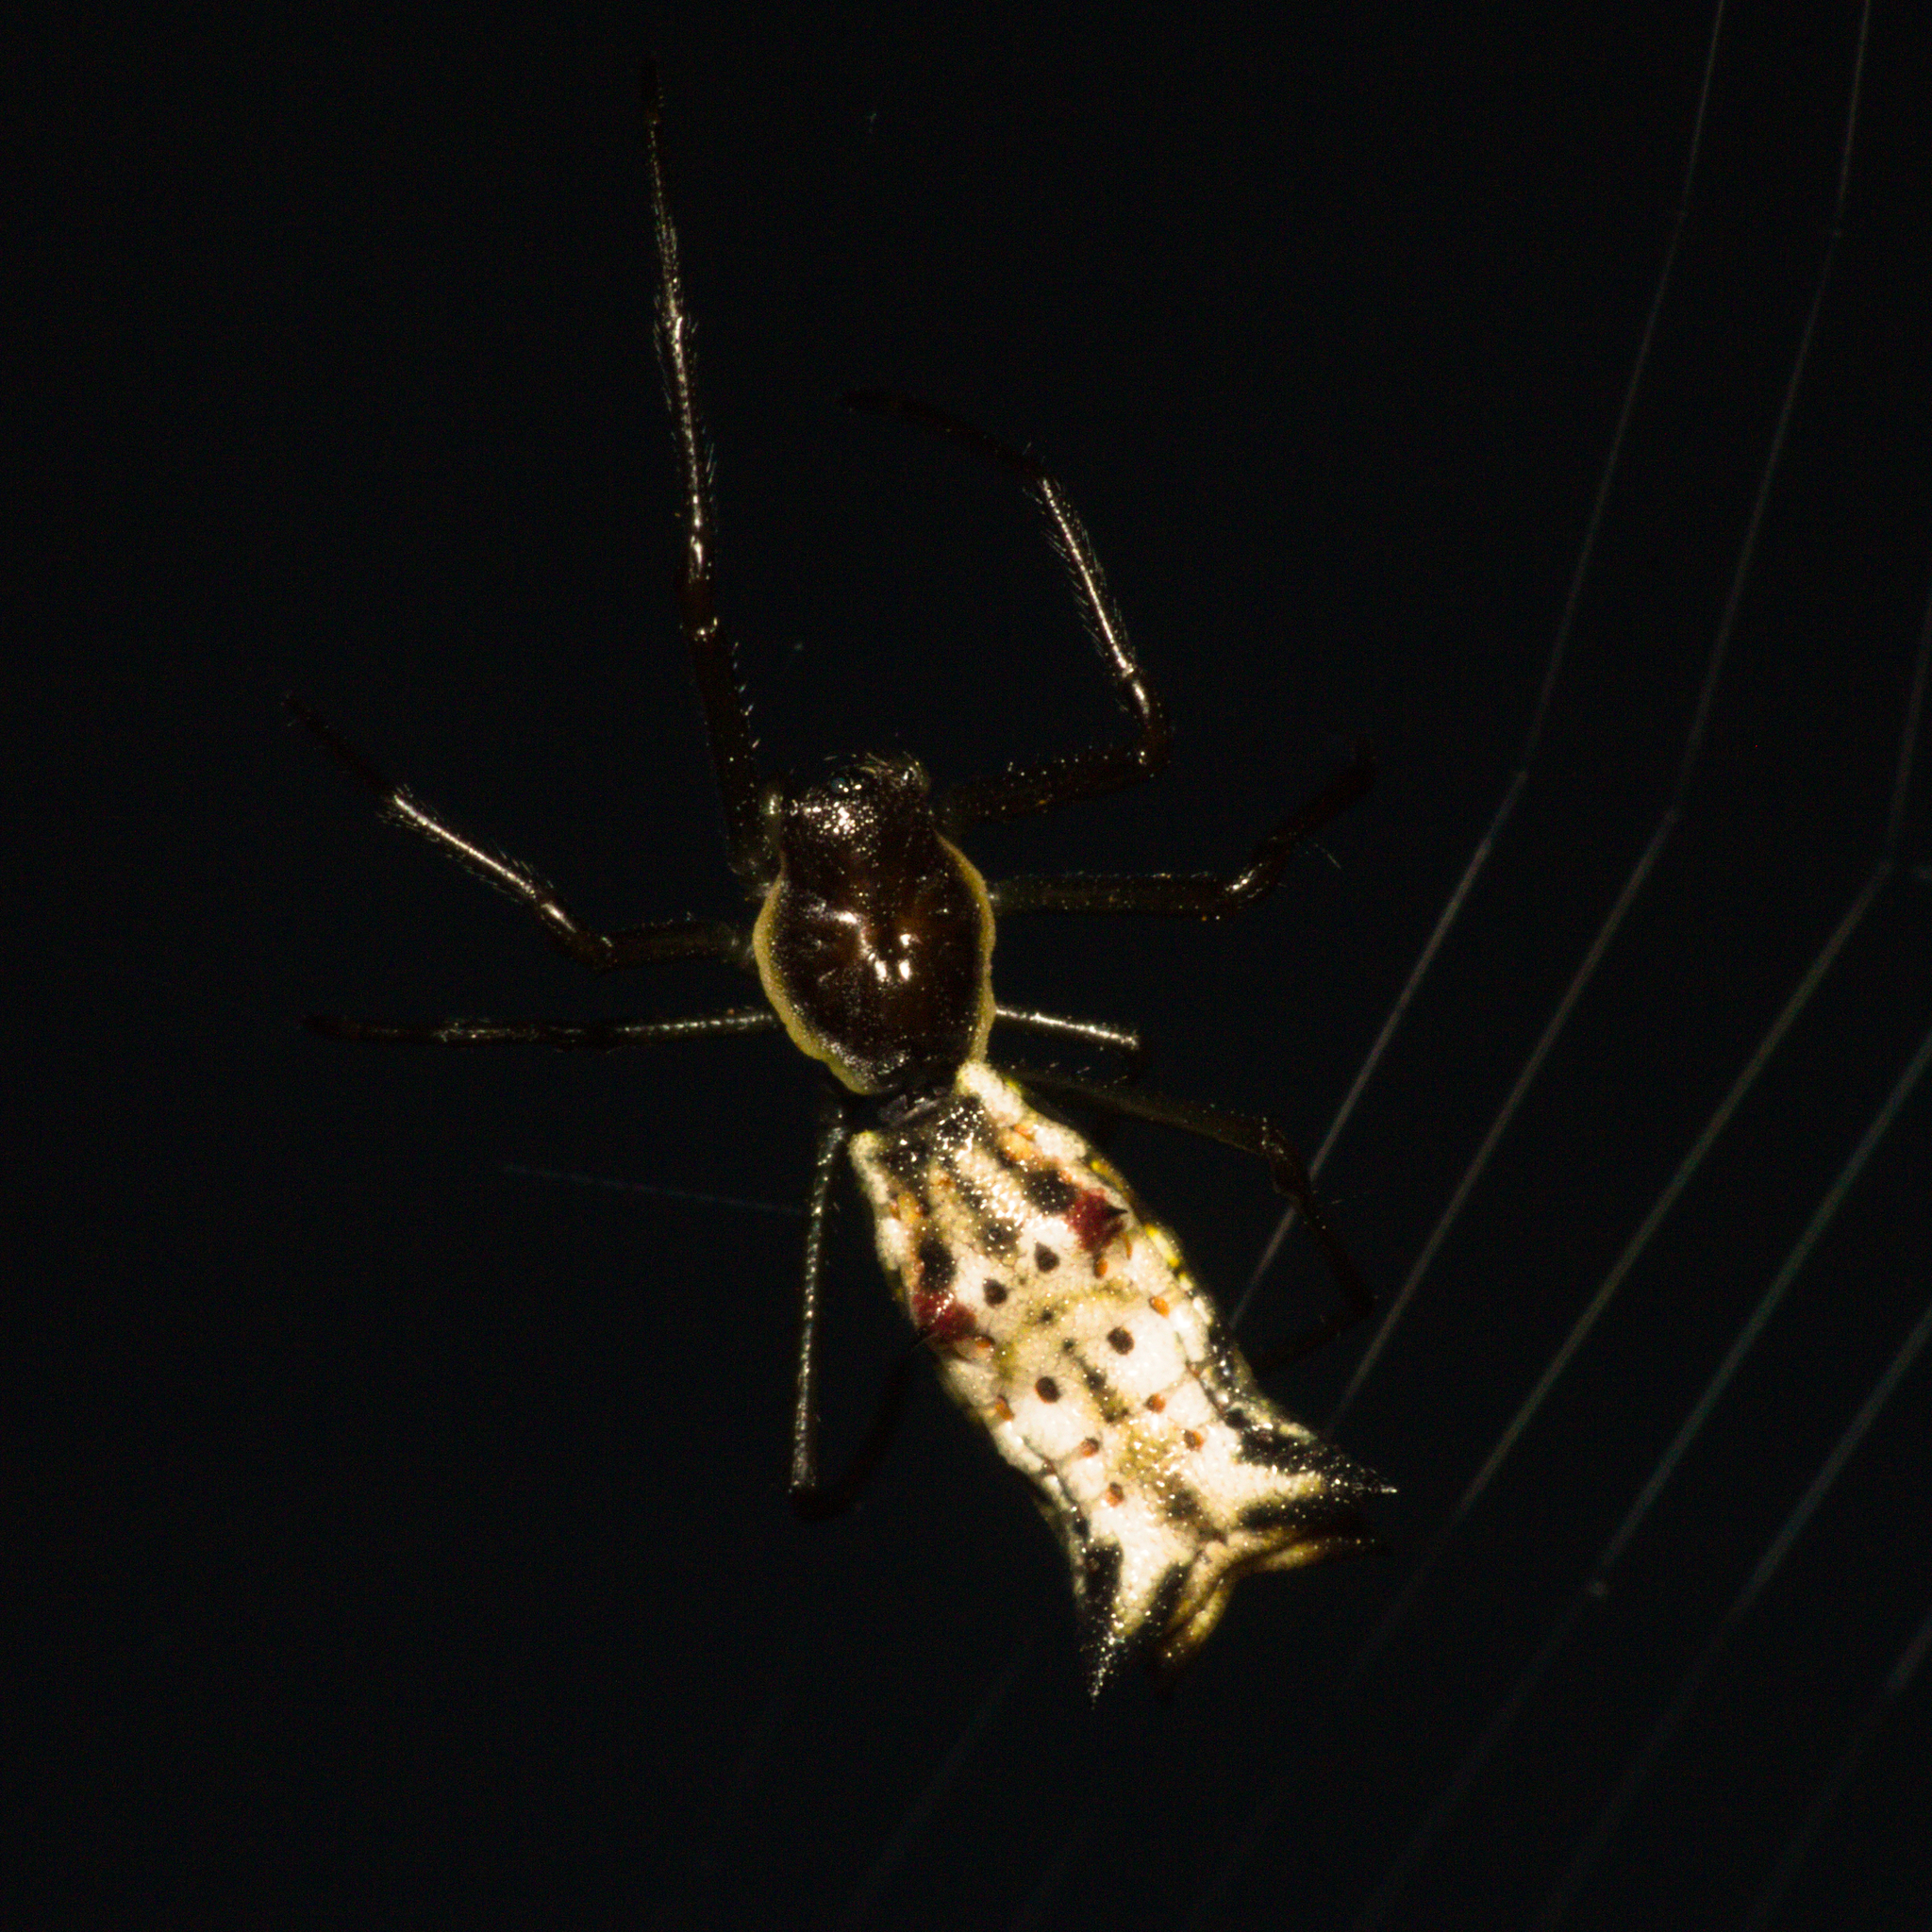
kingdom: Animalia
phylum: Arthropoda
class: Arachnida
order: Araneae
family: Araneidae
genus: Micrathena
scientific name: Micrathena nigrichelis
